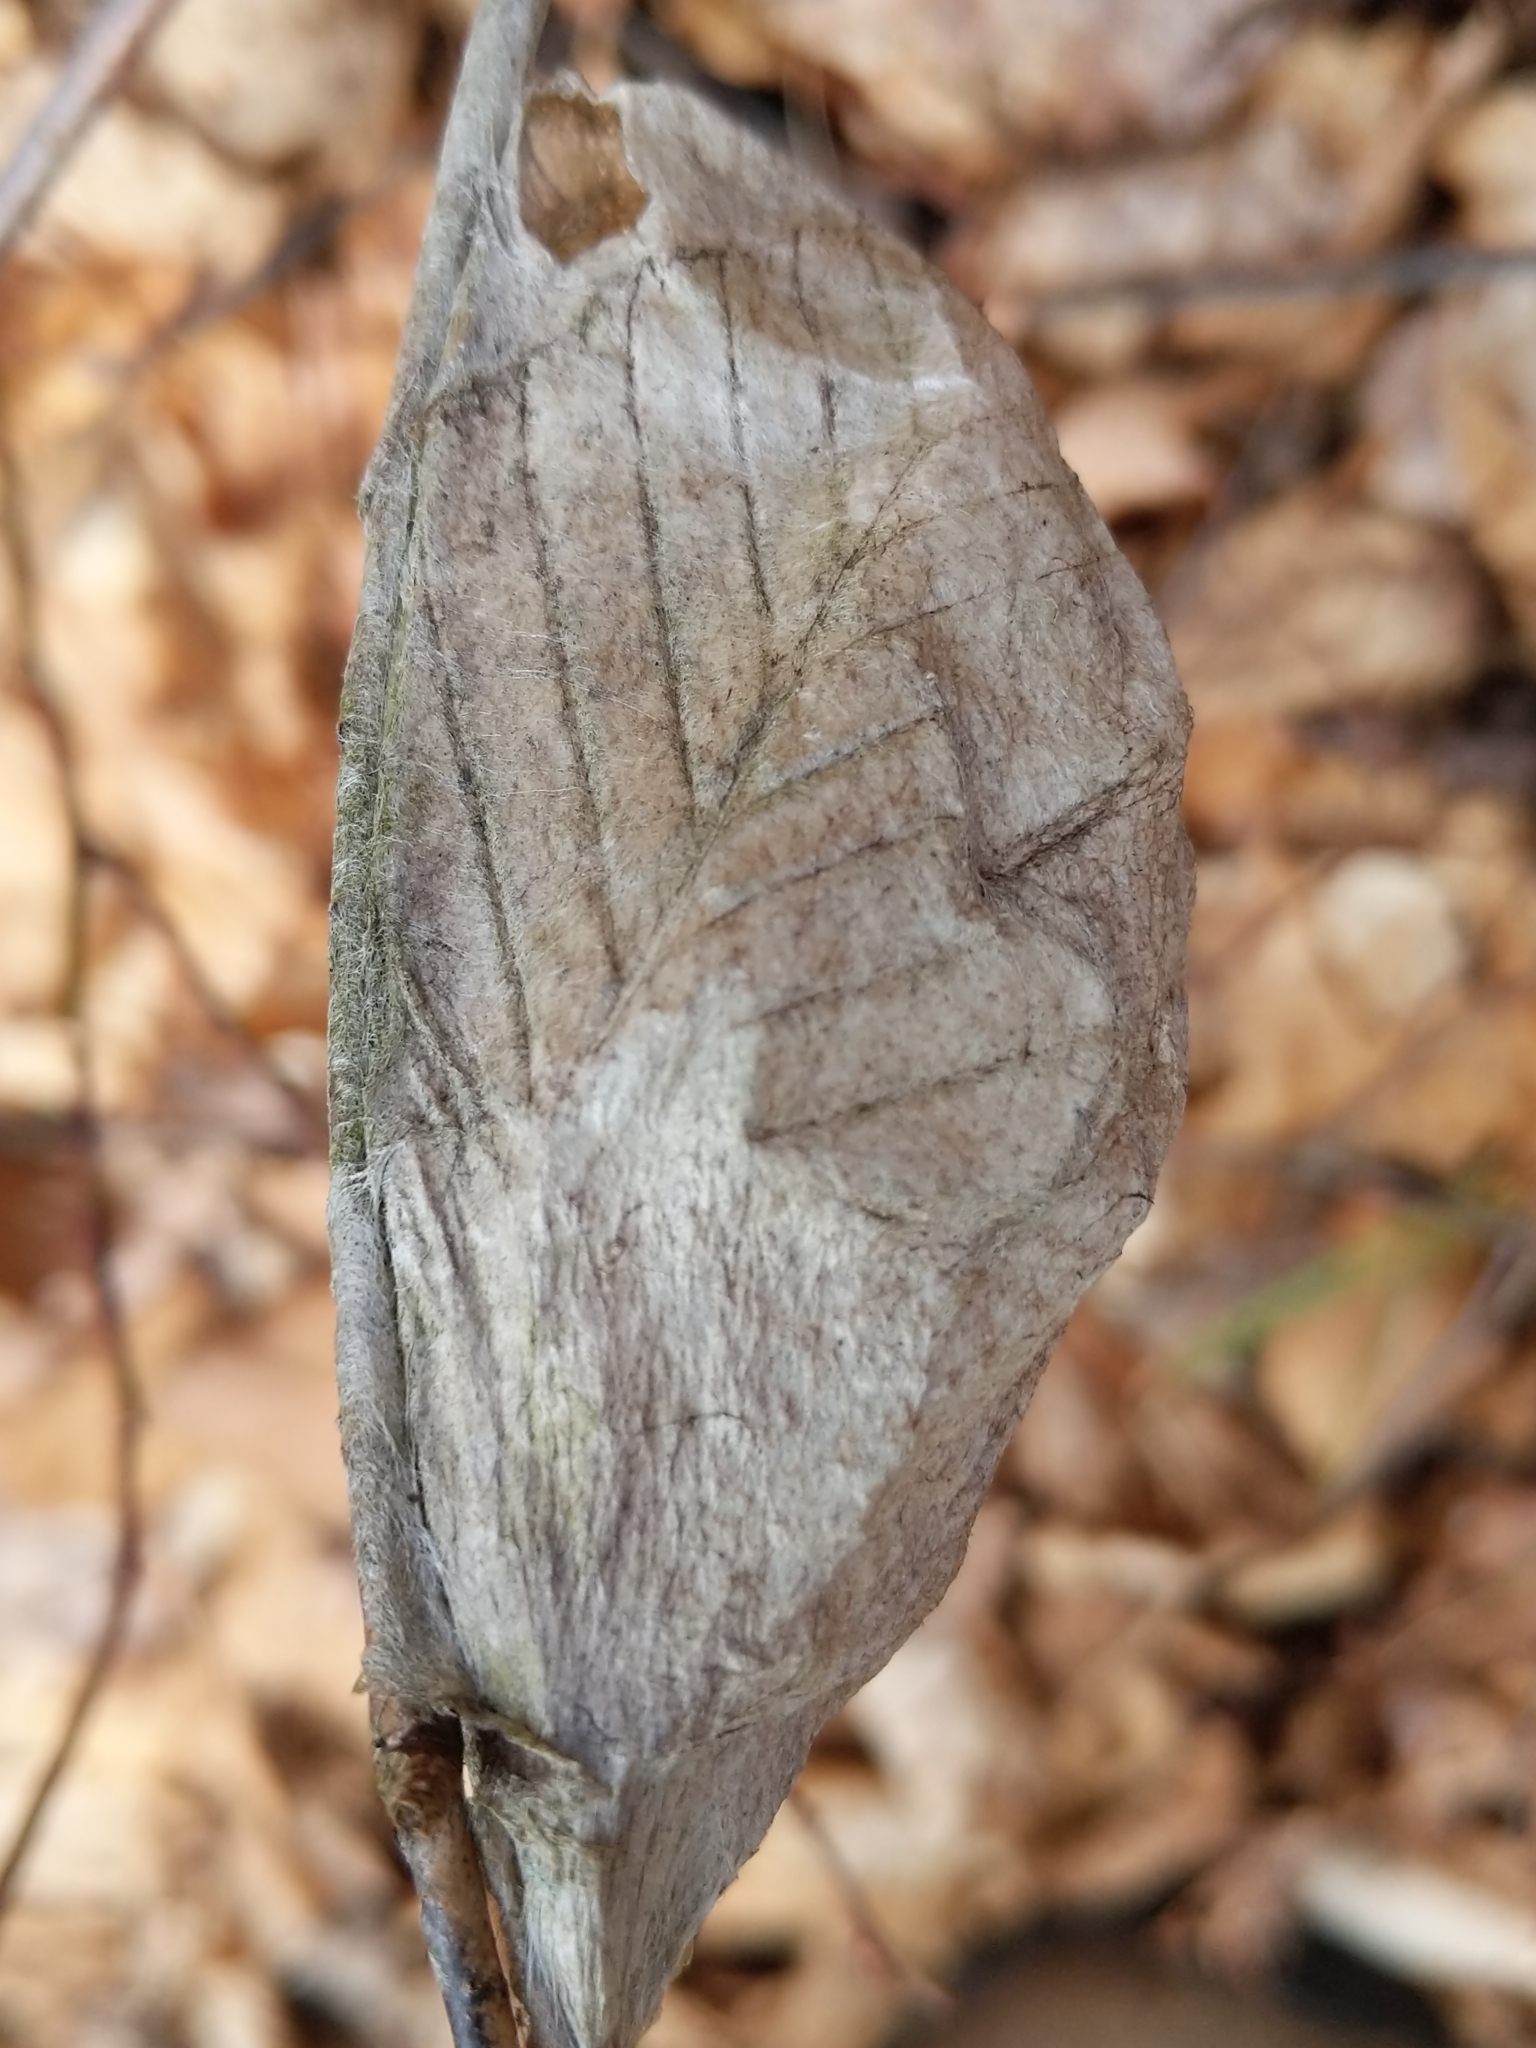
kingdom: Animalia
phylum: Arthropoda
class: Insecta
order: Lepidoptera
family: Saturniidae
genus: Hyalophora
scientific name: Hyalophora cecropia
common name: Cecropia silkmoth
